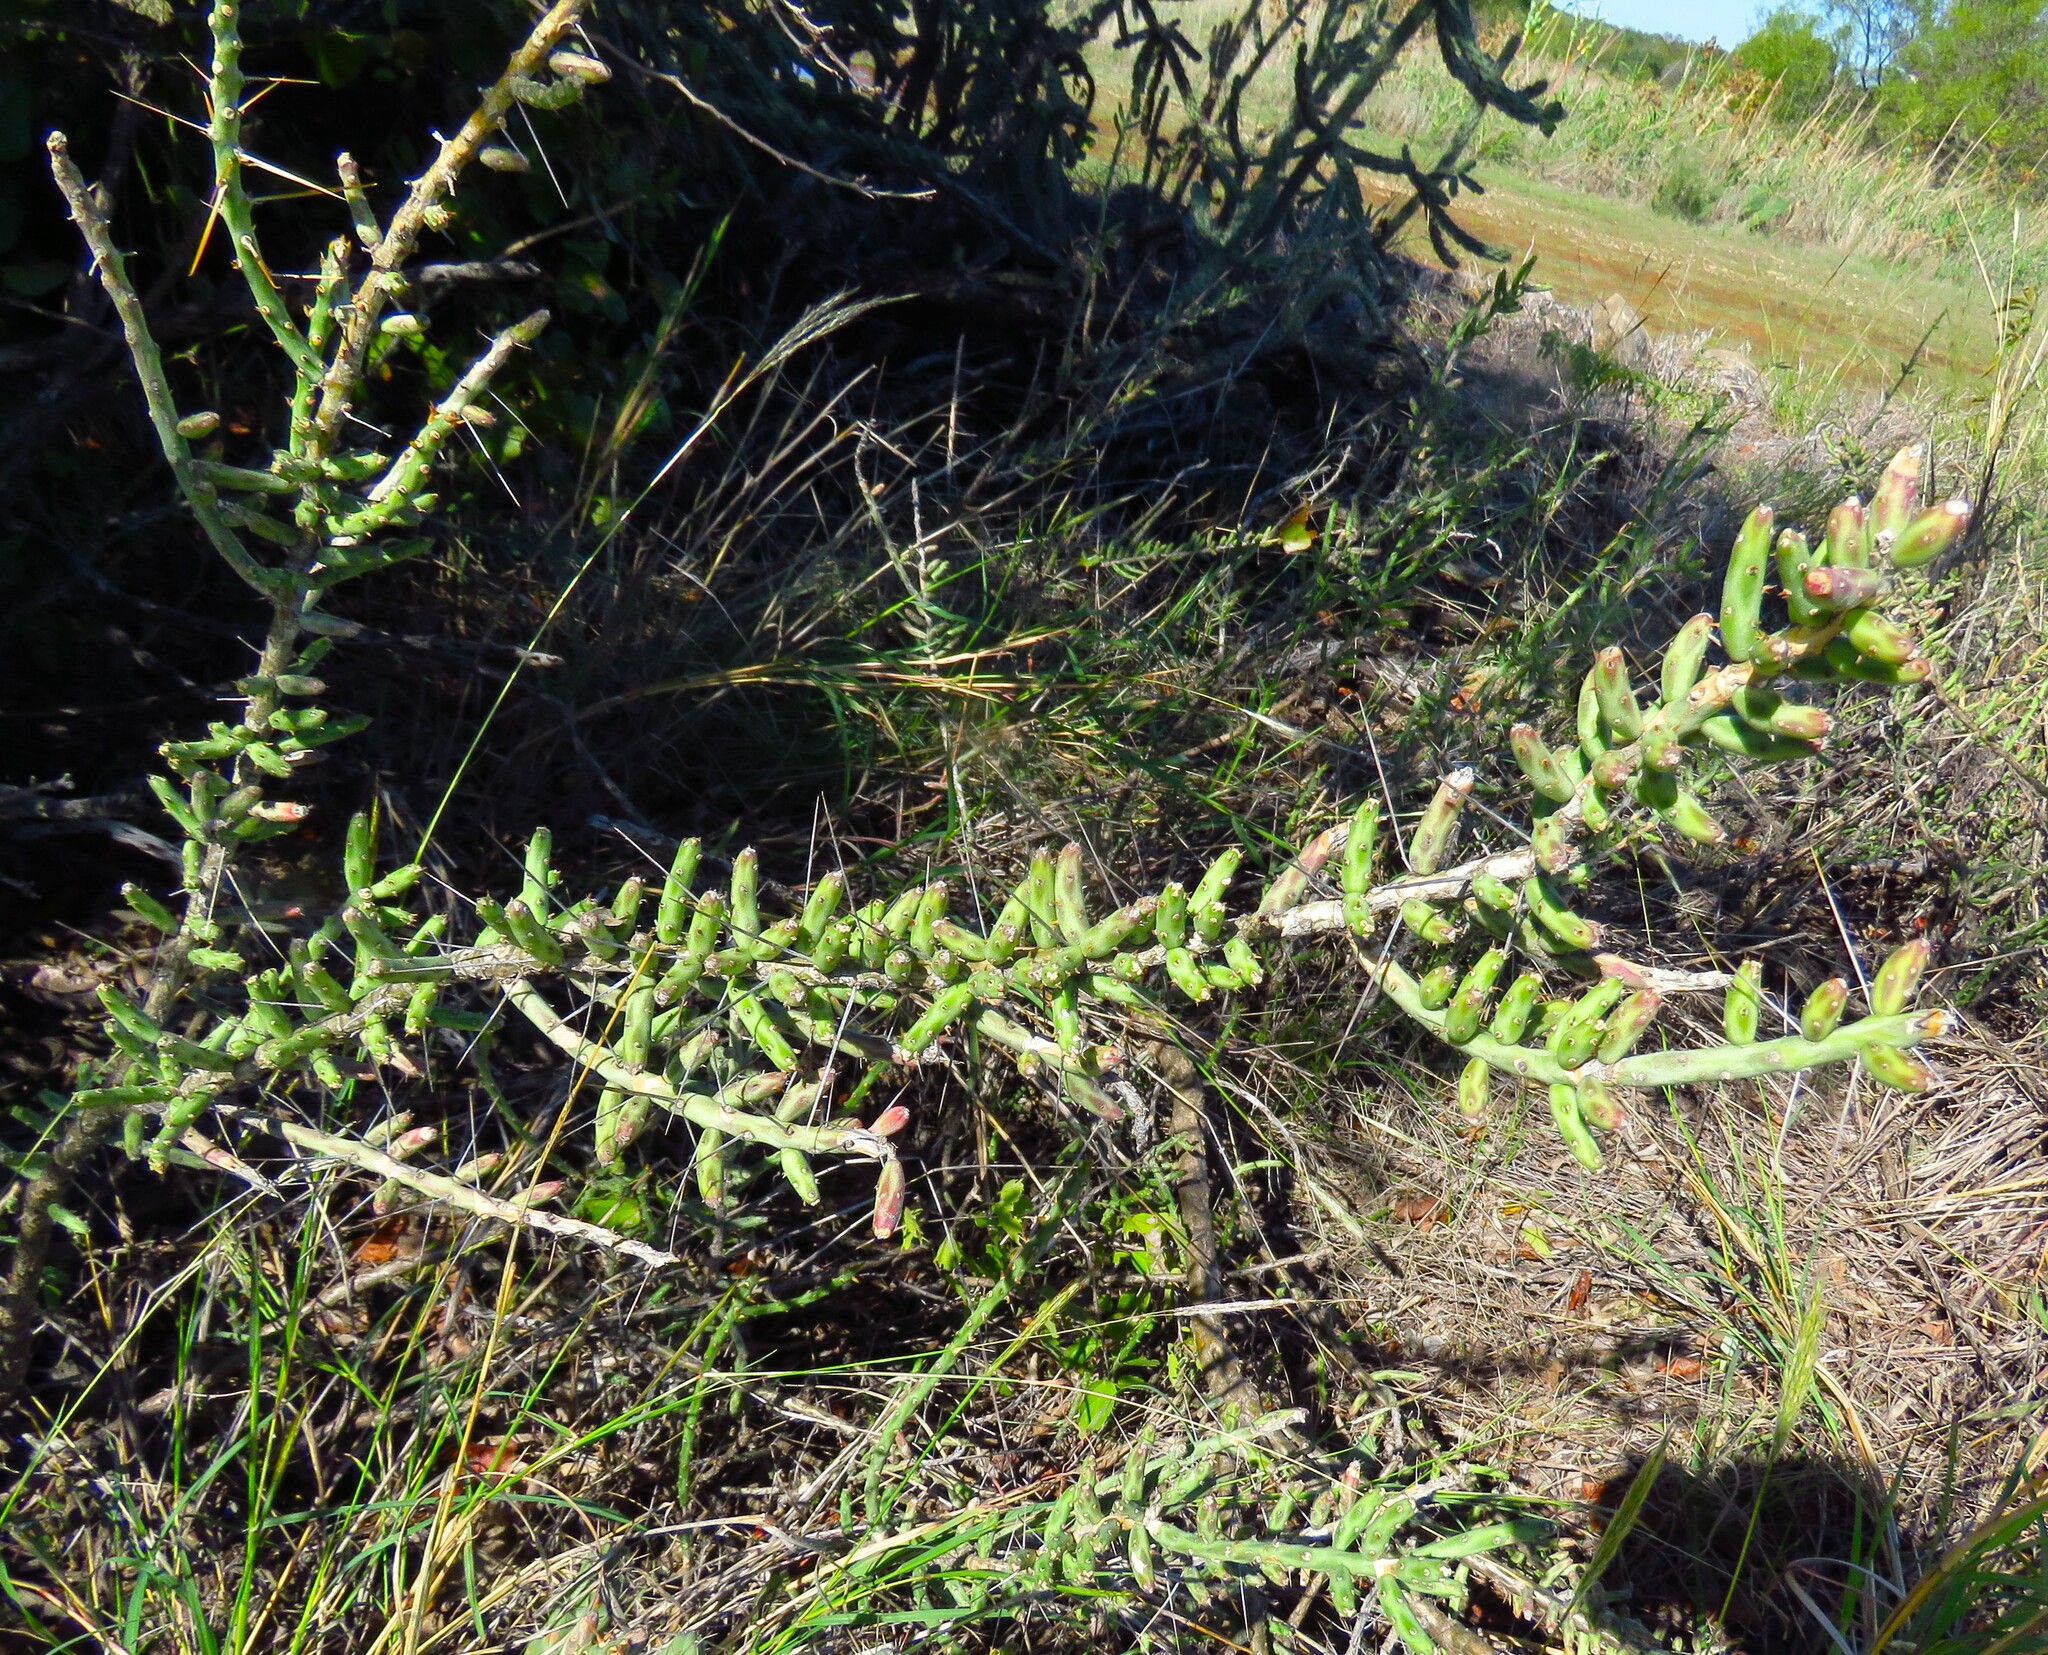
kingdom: Plantae
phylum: Tracheophyta
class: Magnoliopsida
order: Caryophyllales
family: Cactaceae
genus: Cylindropuntia
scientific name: Cylindropuntia leptocaulis
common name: Christmas cactus
